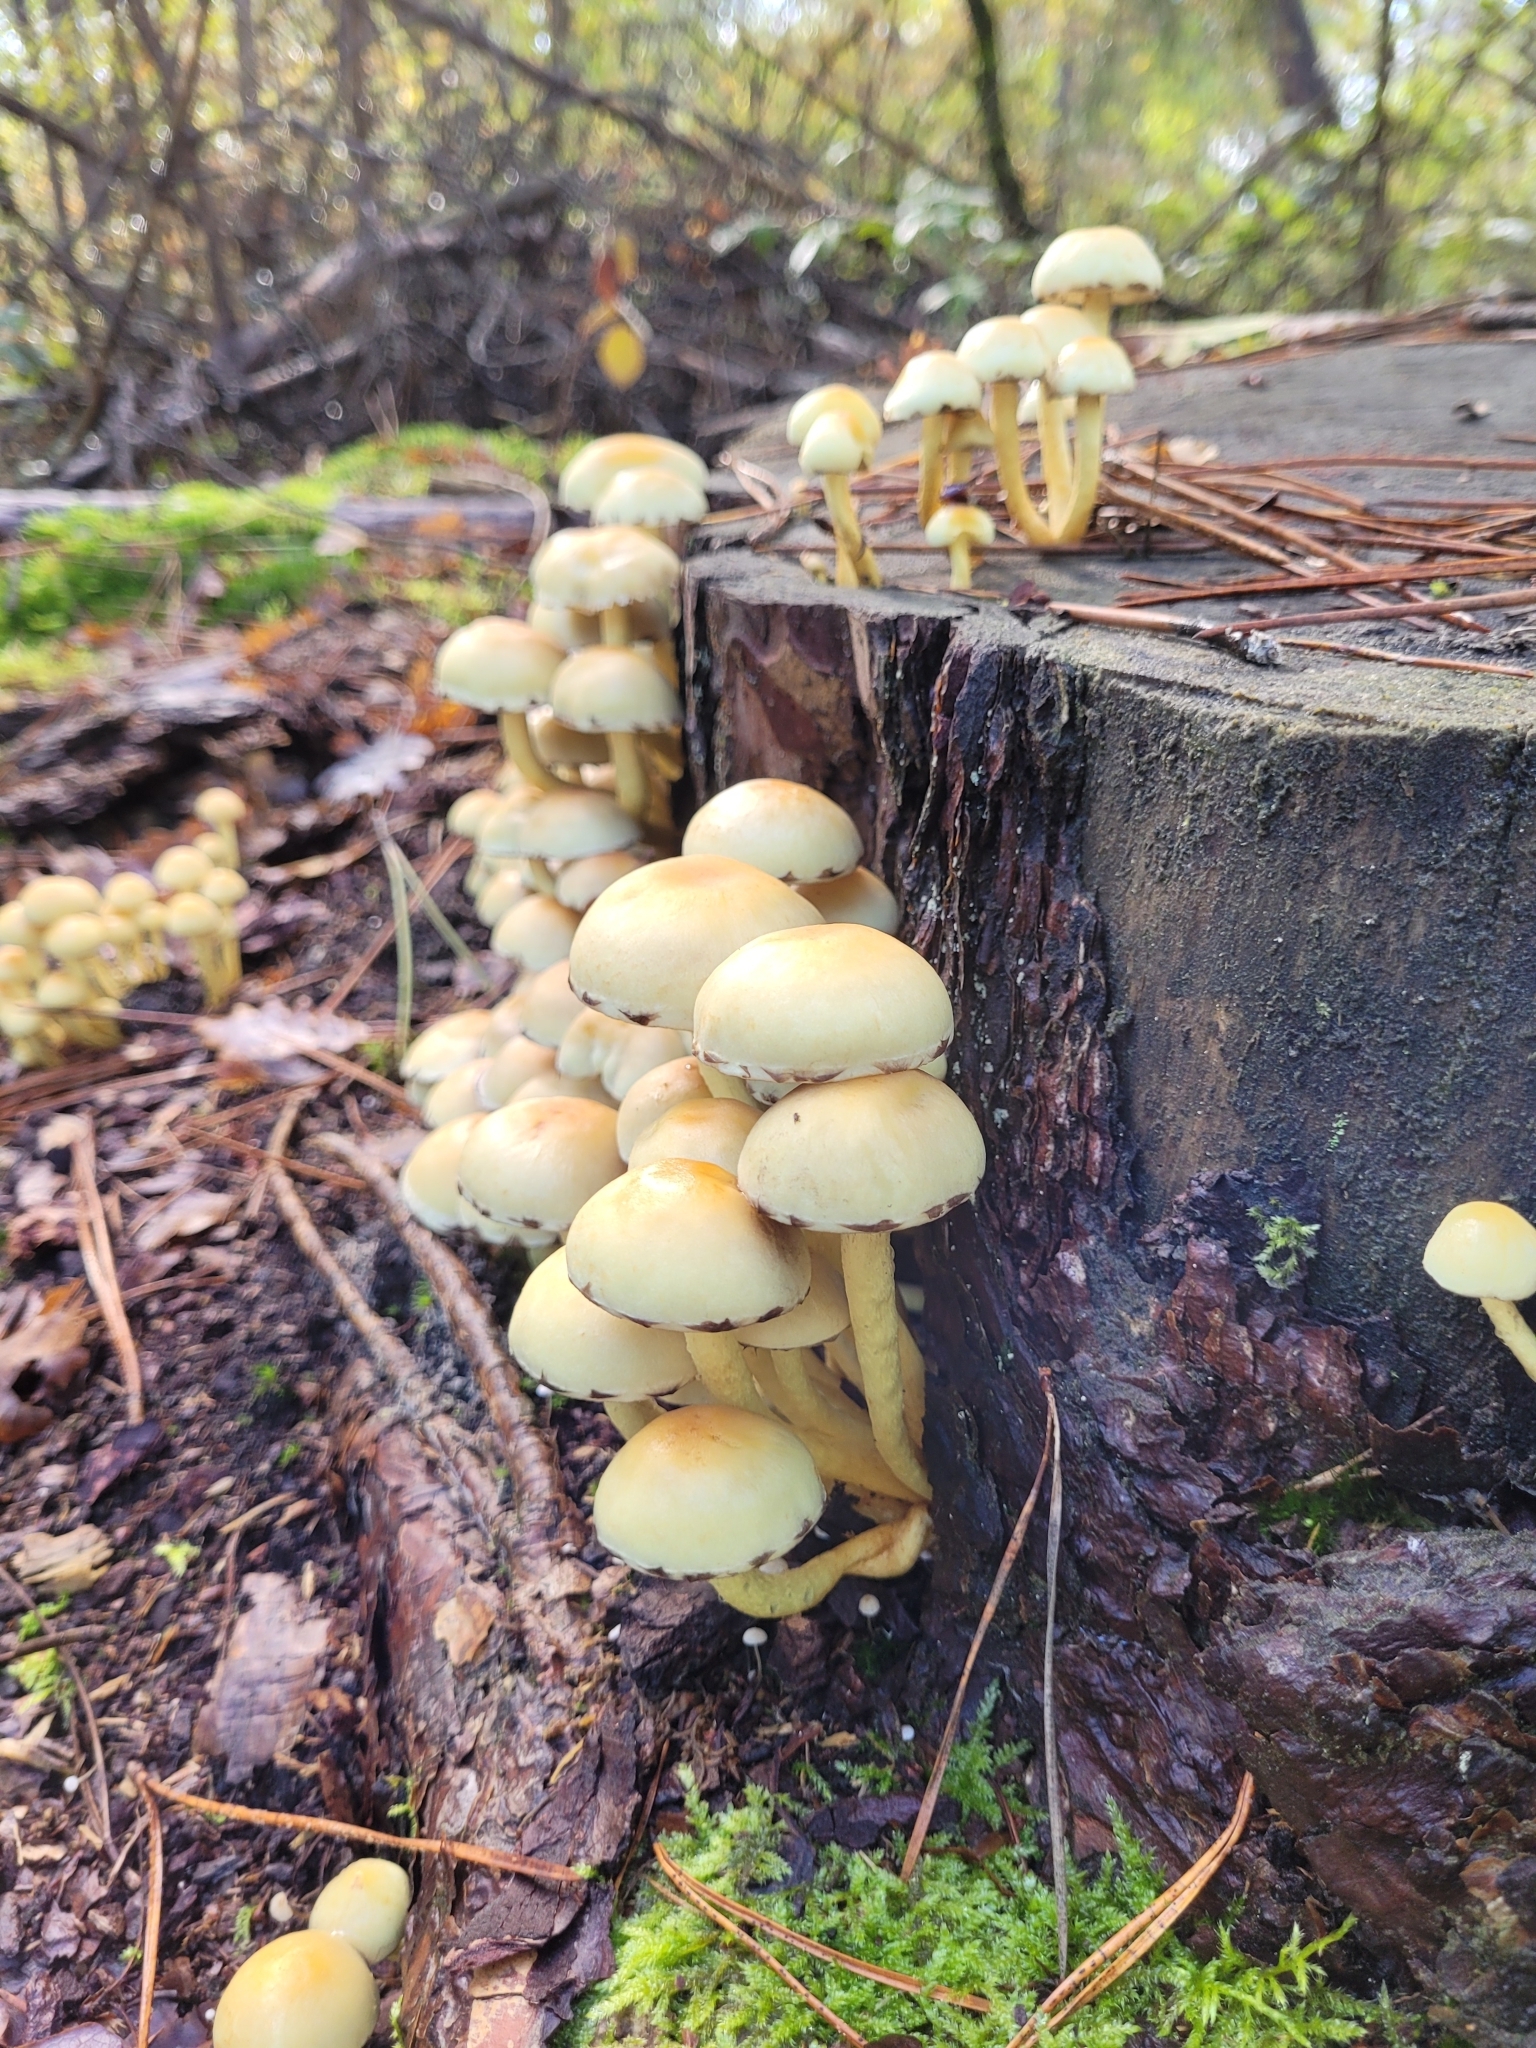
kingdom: Fungi
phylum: Basidiomycota
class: Agaricomycetes
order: Agaricales
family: Strophariaceae
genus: Hypholoma
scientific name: Hypholoma fasciculare
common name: Sulphur tuft
